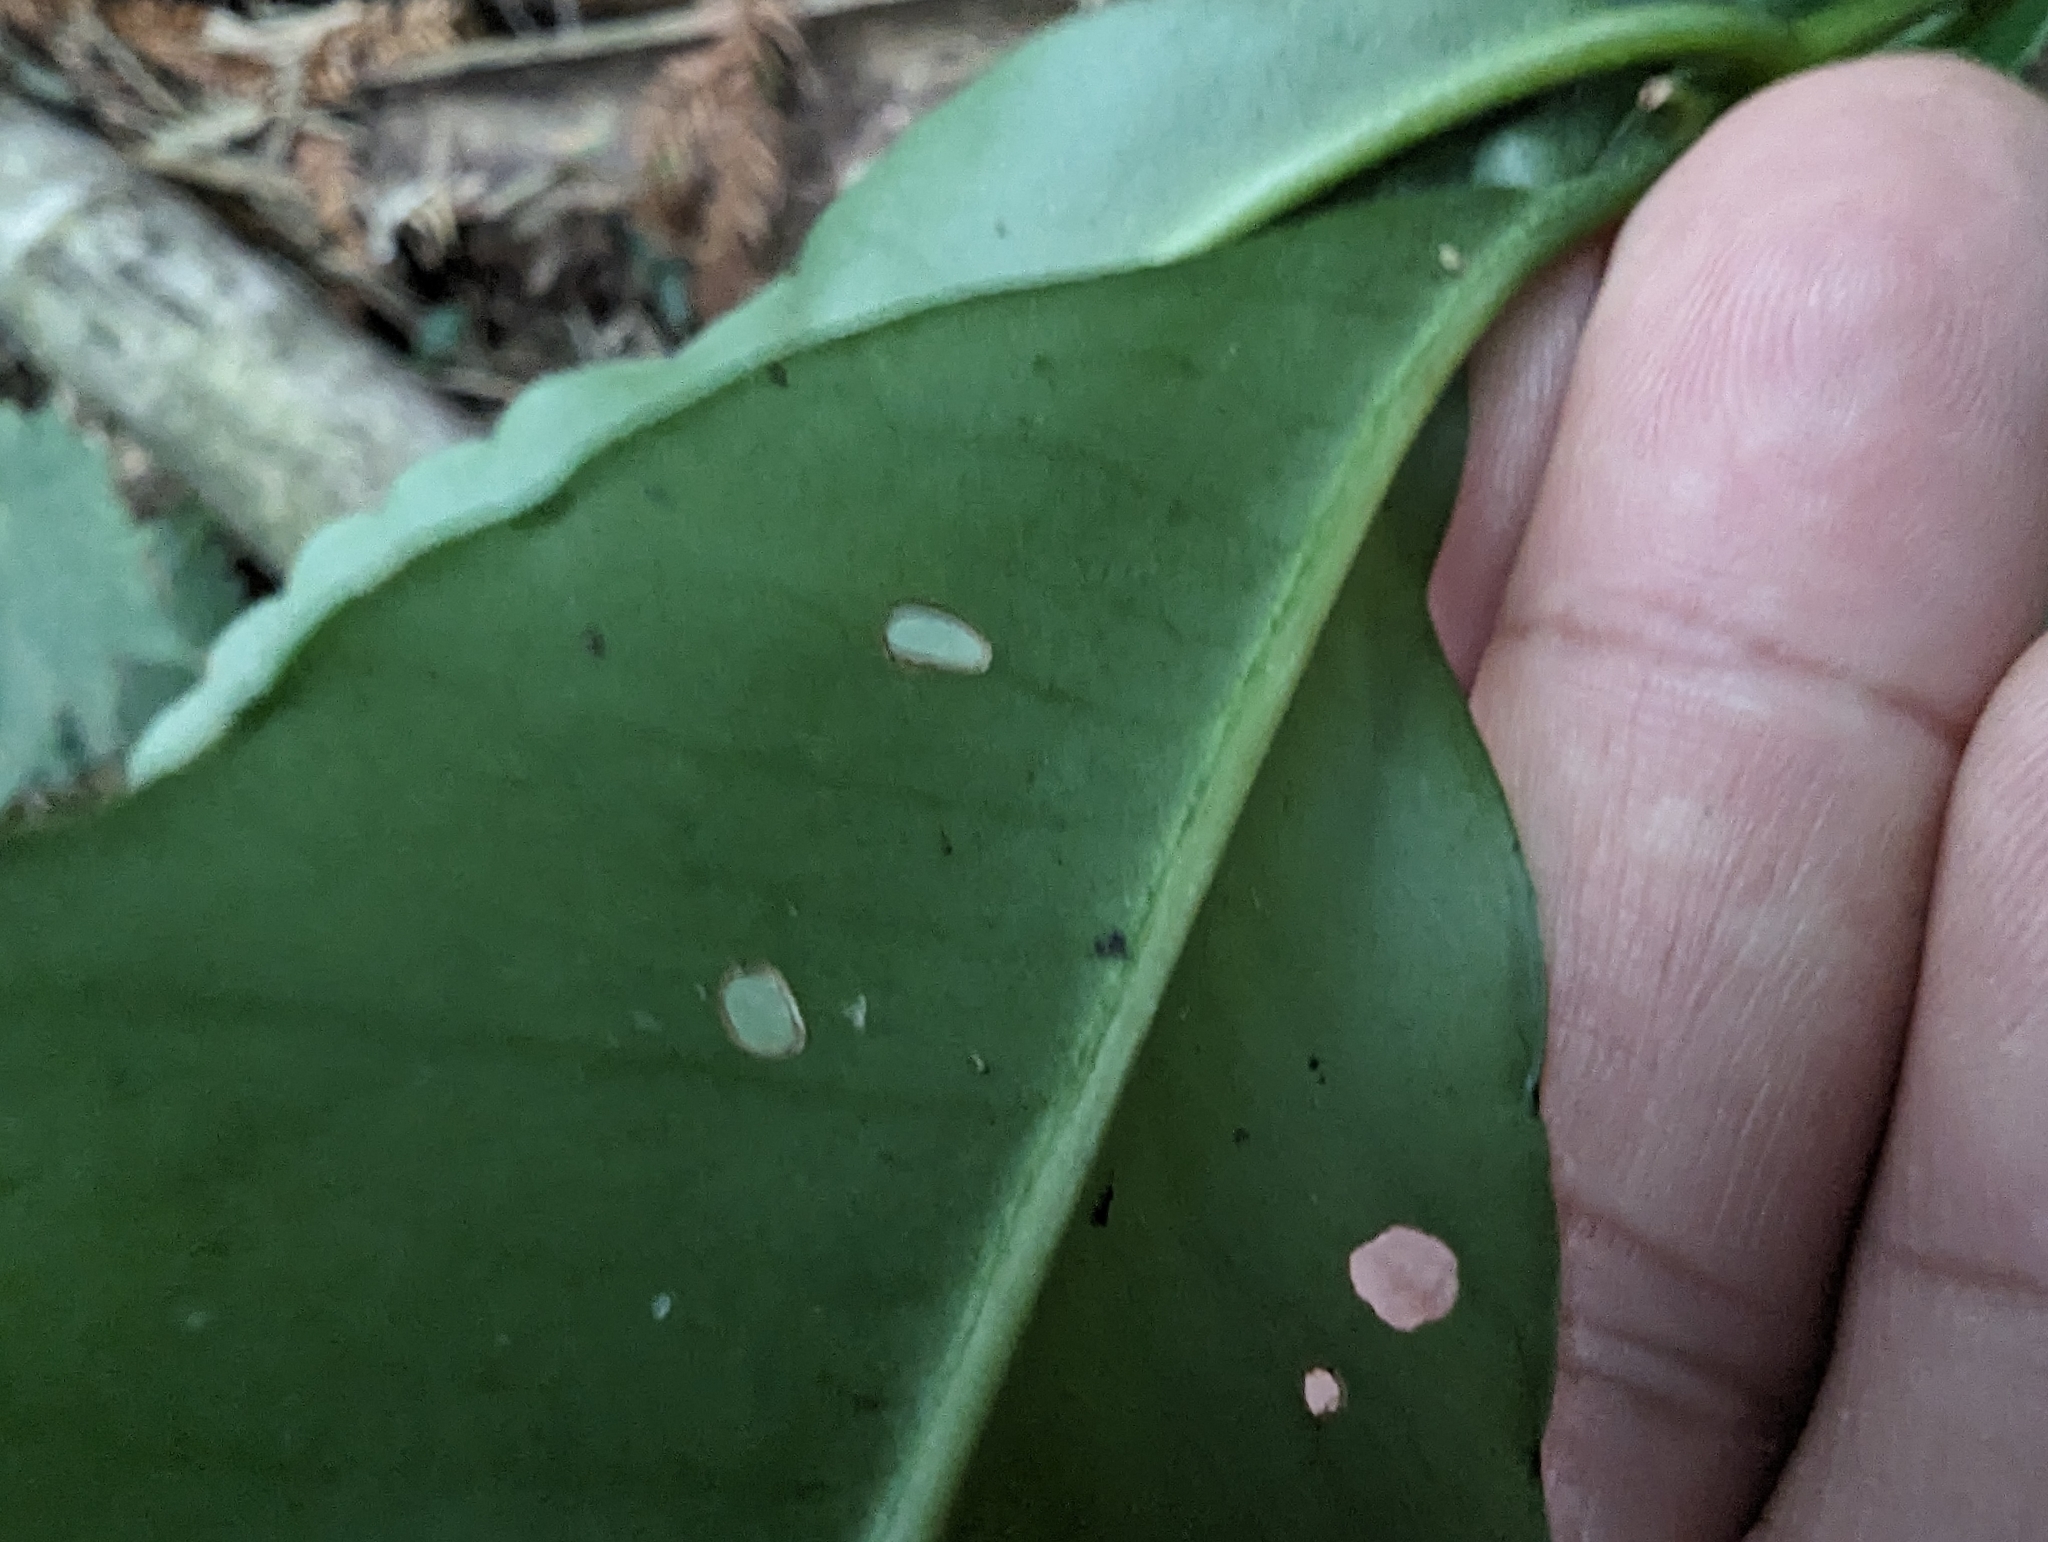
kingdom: Plantae
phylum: Tracheophyta
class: Magnoliopsida
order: Ericales
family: Primulaceae
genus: Ardisia
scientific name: Ardisia polysticta
